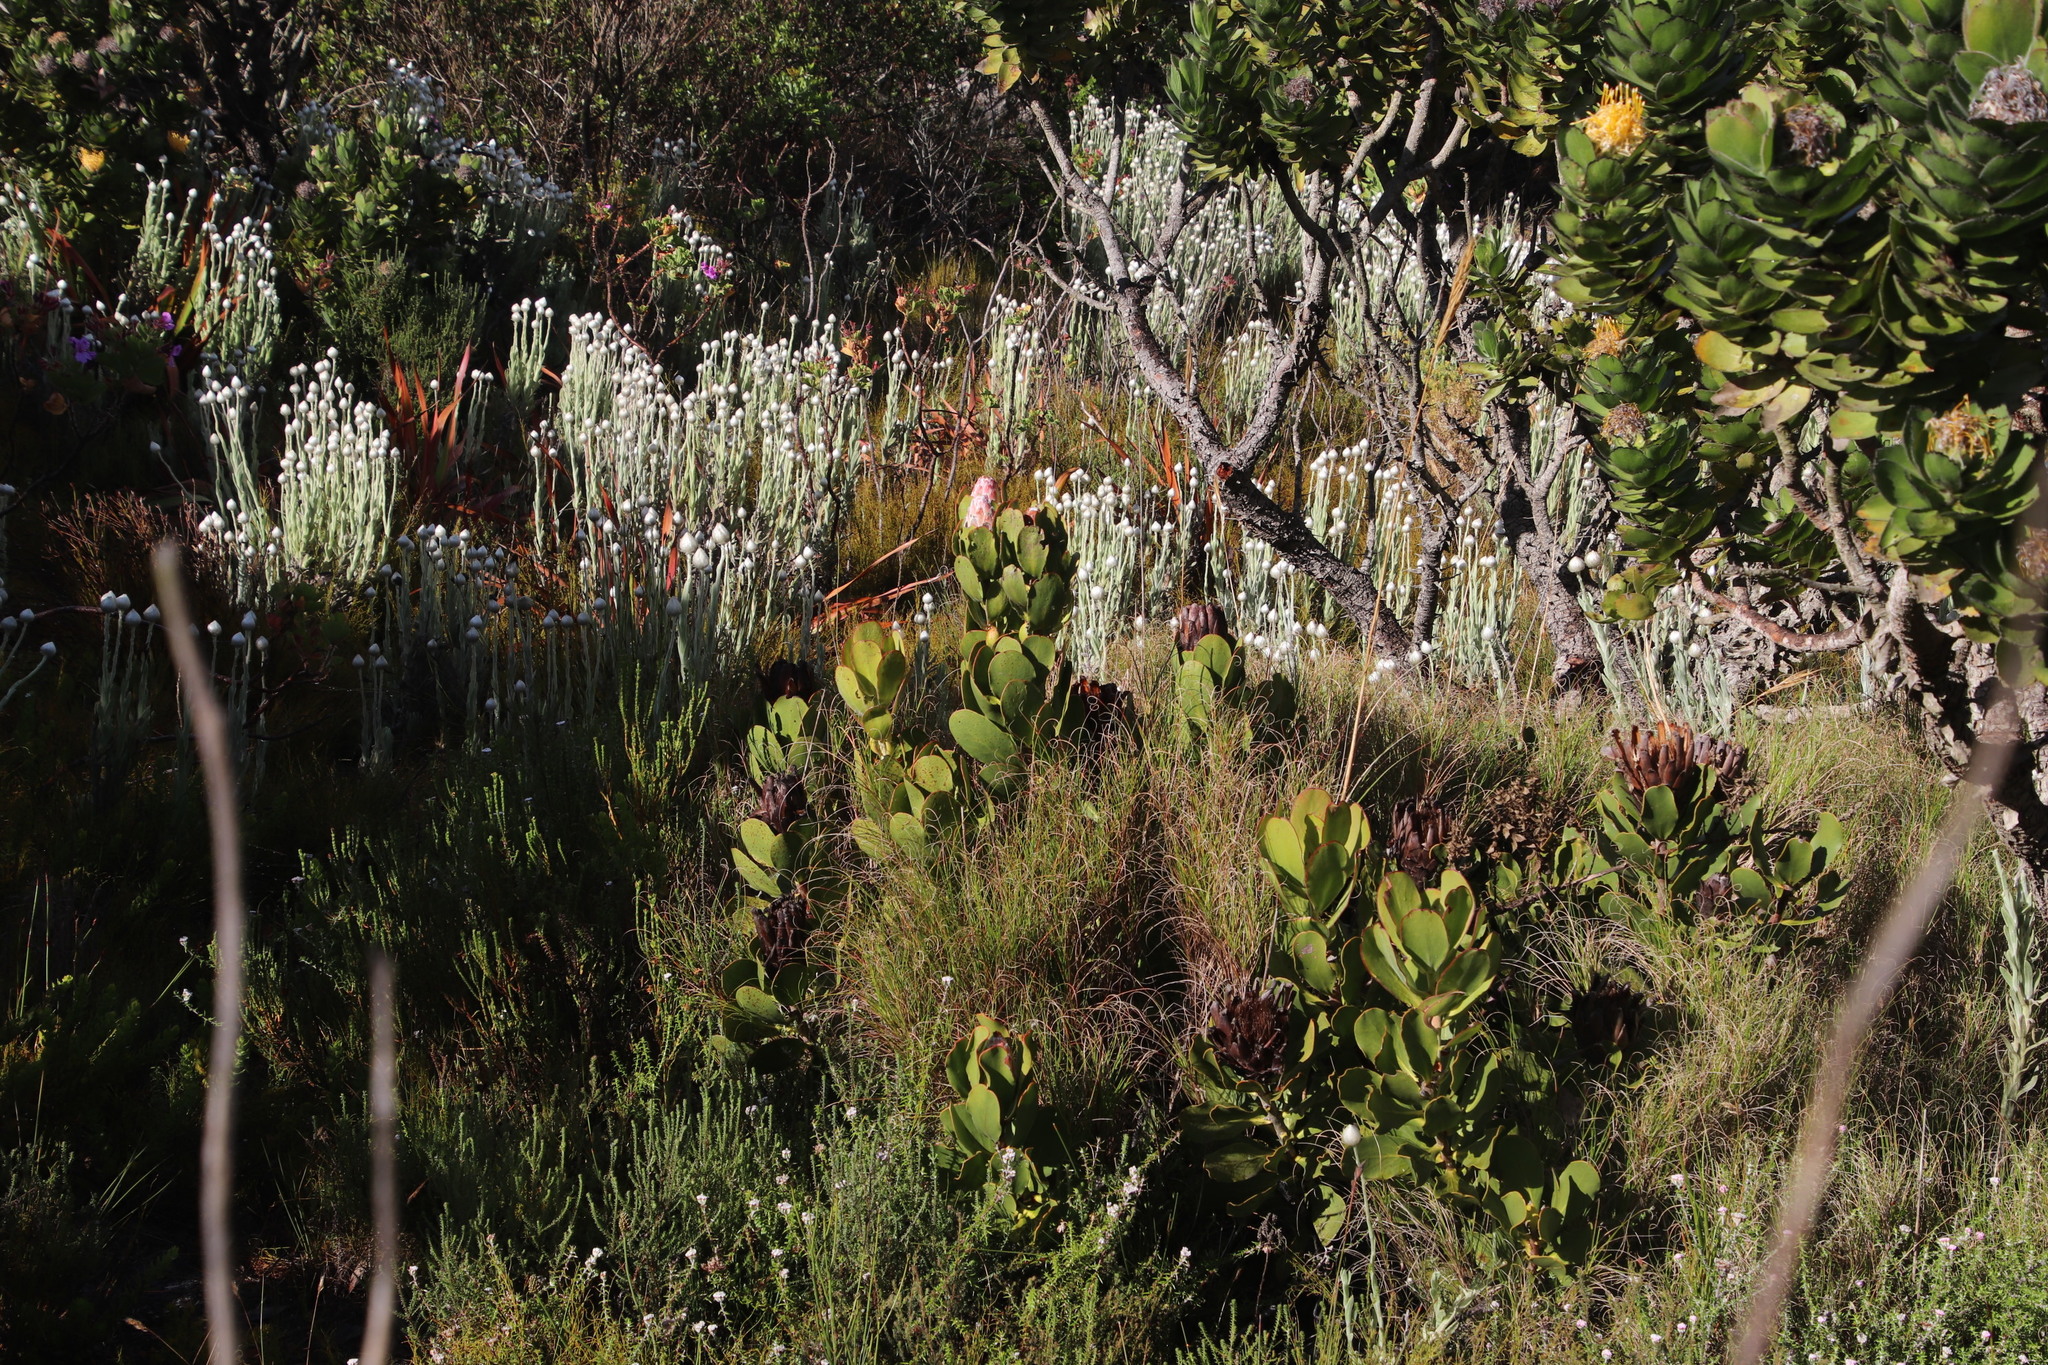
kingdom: Plantae
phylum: Tracheophyta
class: Magnoliopsida
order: Proteales
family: Proteaceae
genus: Protea
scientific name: Protea speciosa
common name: Brown-beard sugarbush
